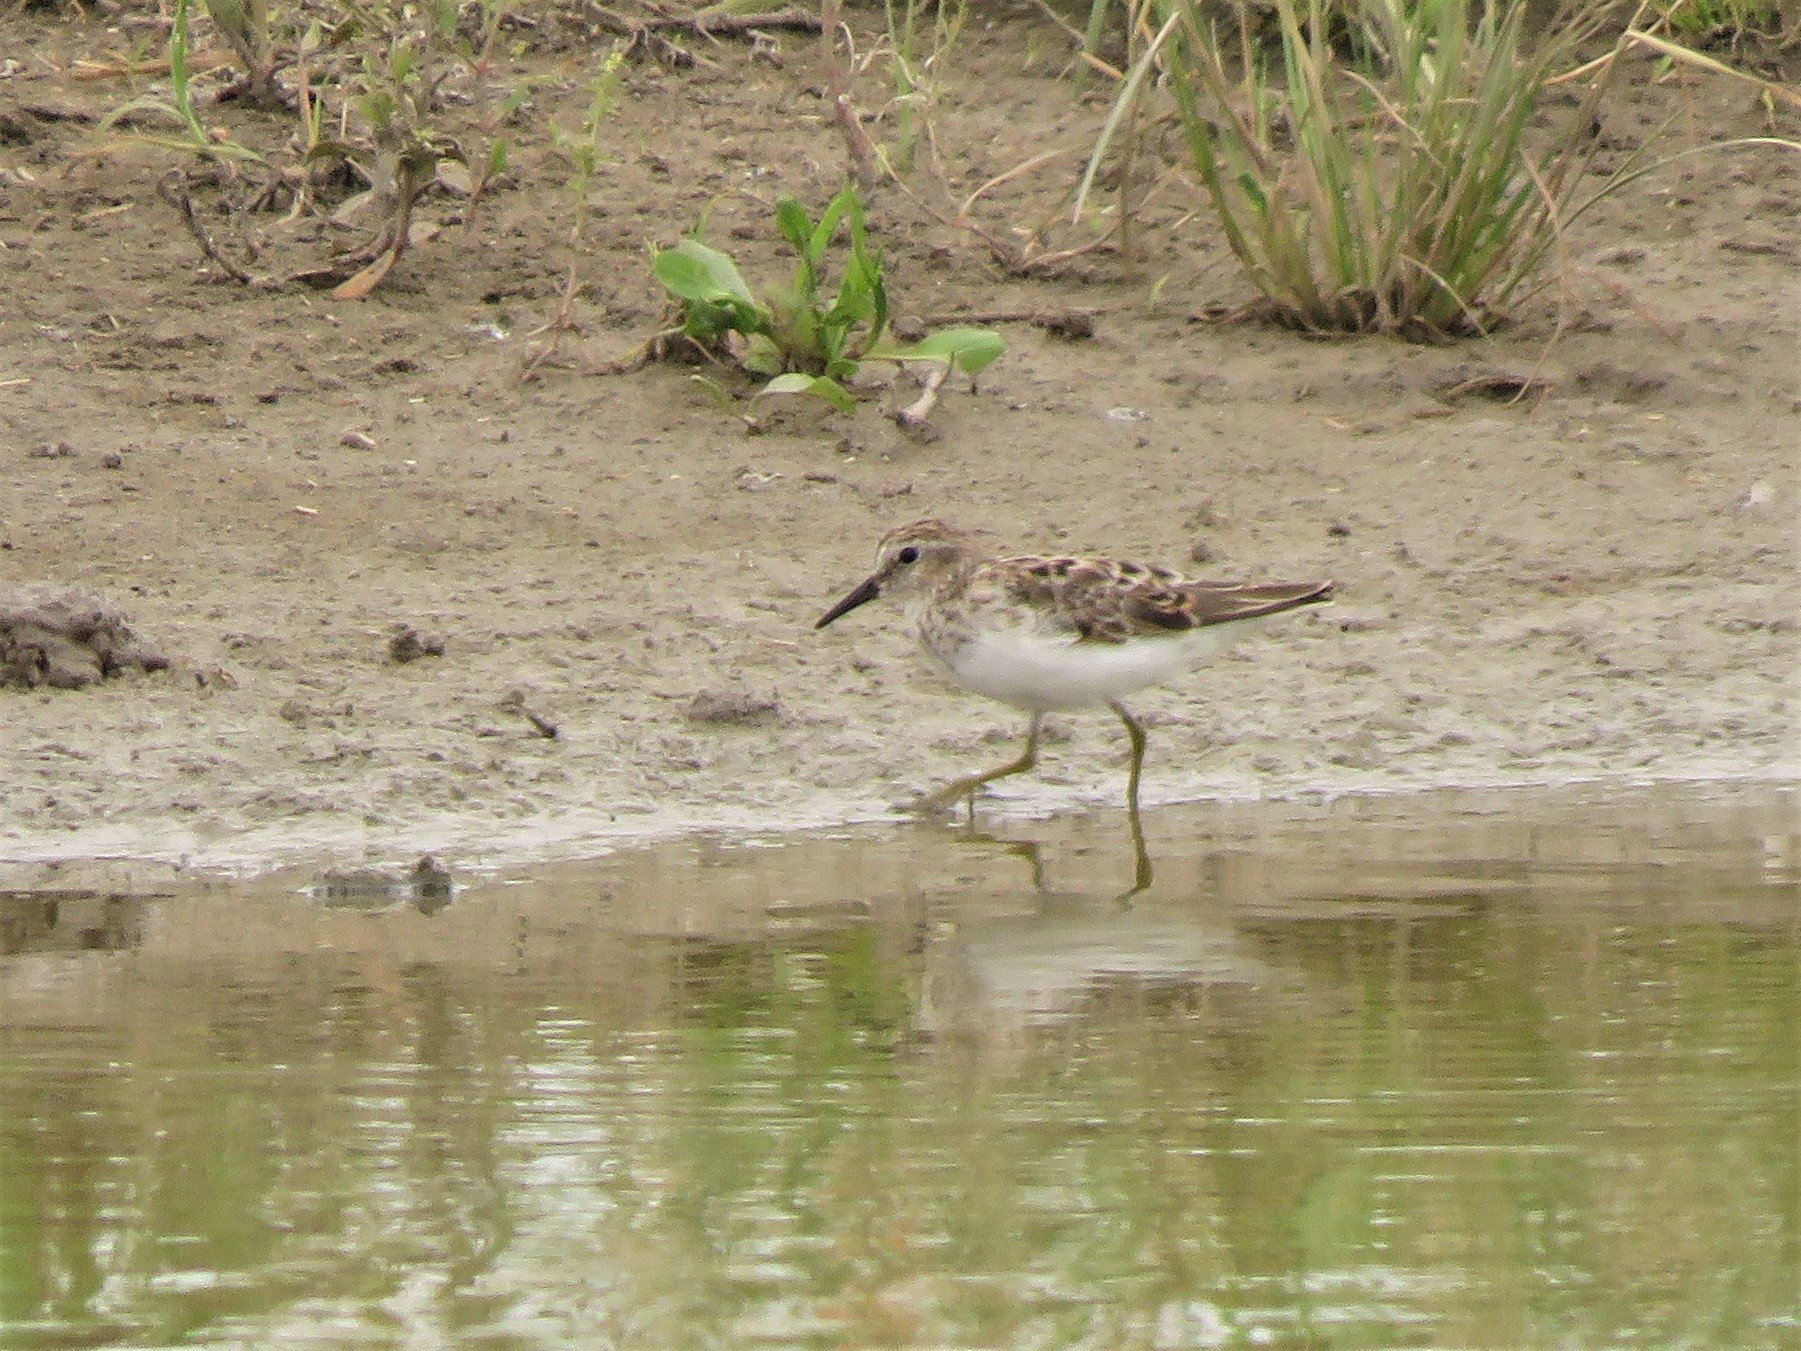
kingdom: Animalia
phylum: Chordata
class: Aves
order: Charadriiformes
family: Scolopacidae
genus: Calidris
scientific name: Calidris minutilla
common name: Least sandpiper
